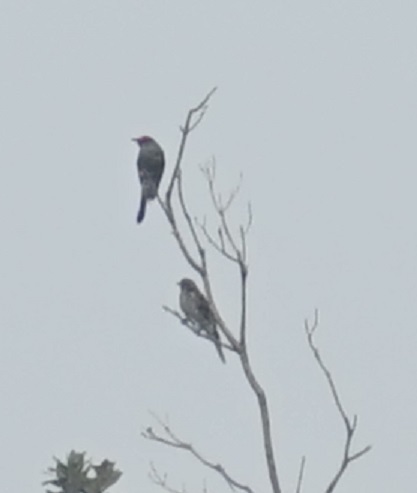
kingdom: Animalia
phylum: Chordata
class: Aves
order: Passeriformes
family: Oriolidae
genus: Sphecotheres
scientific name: Sphecotheres vieilloti
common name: Australasian figbird
